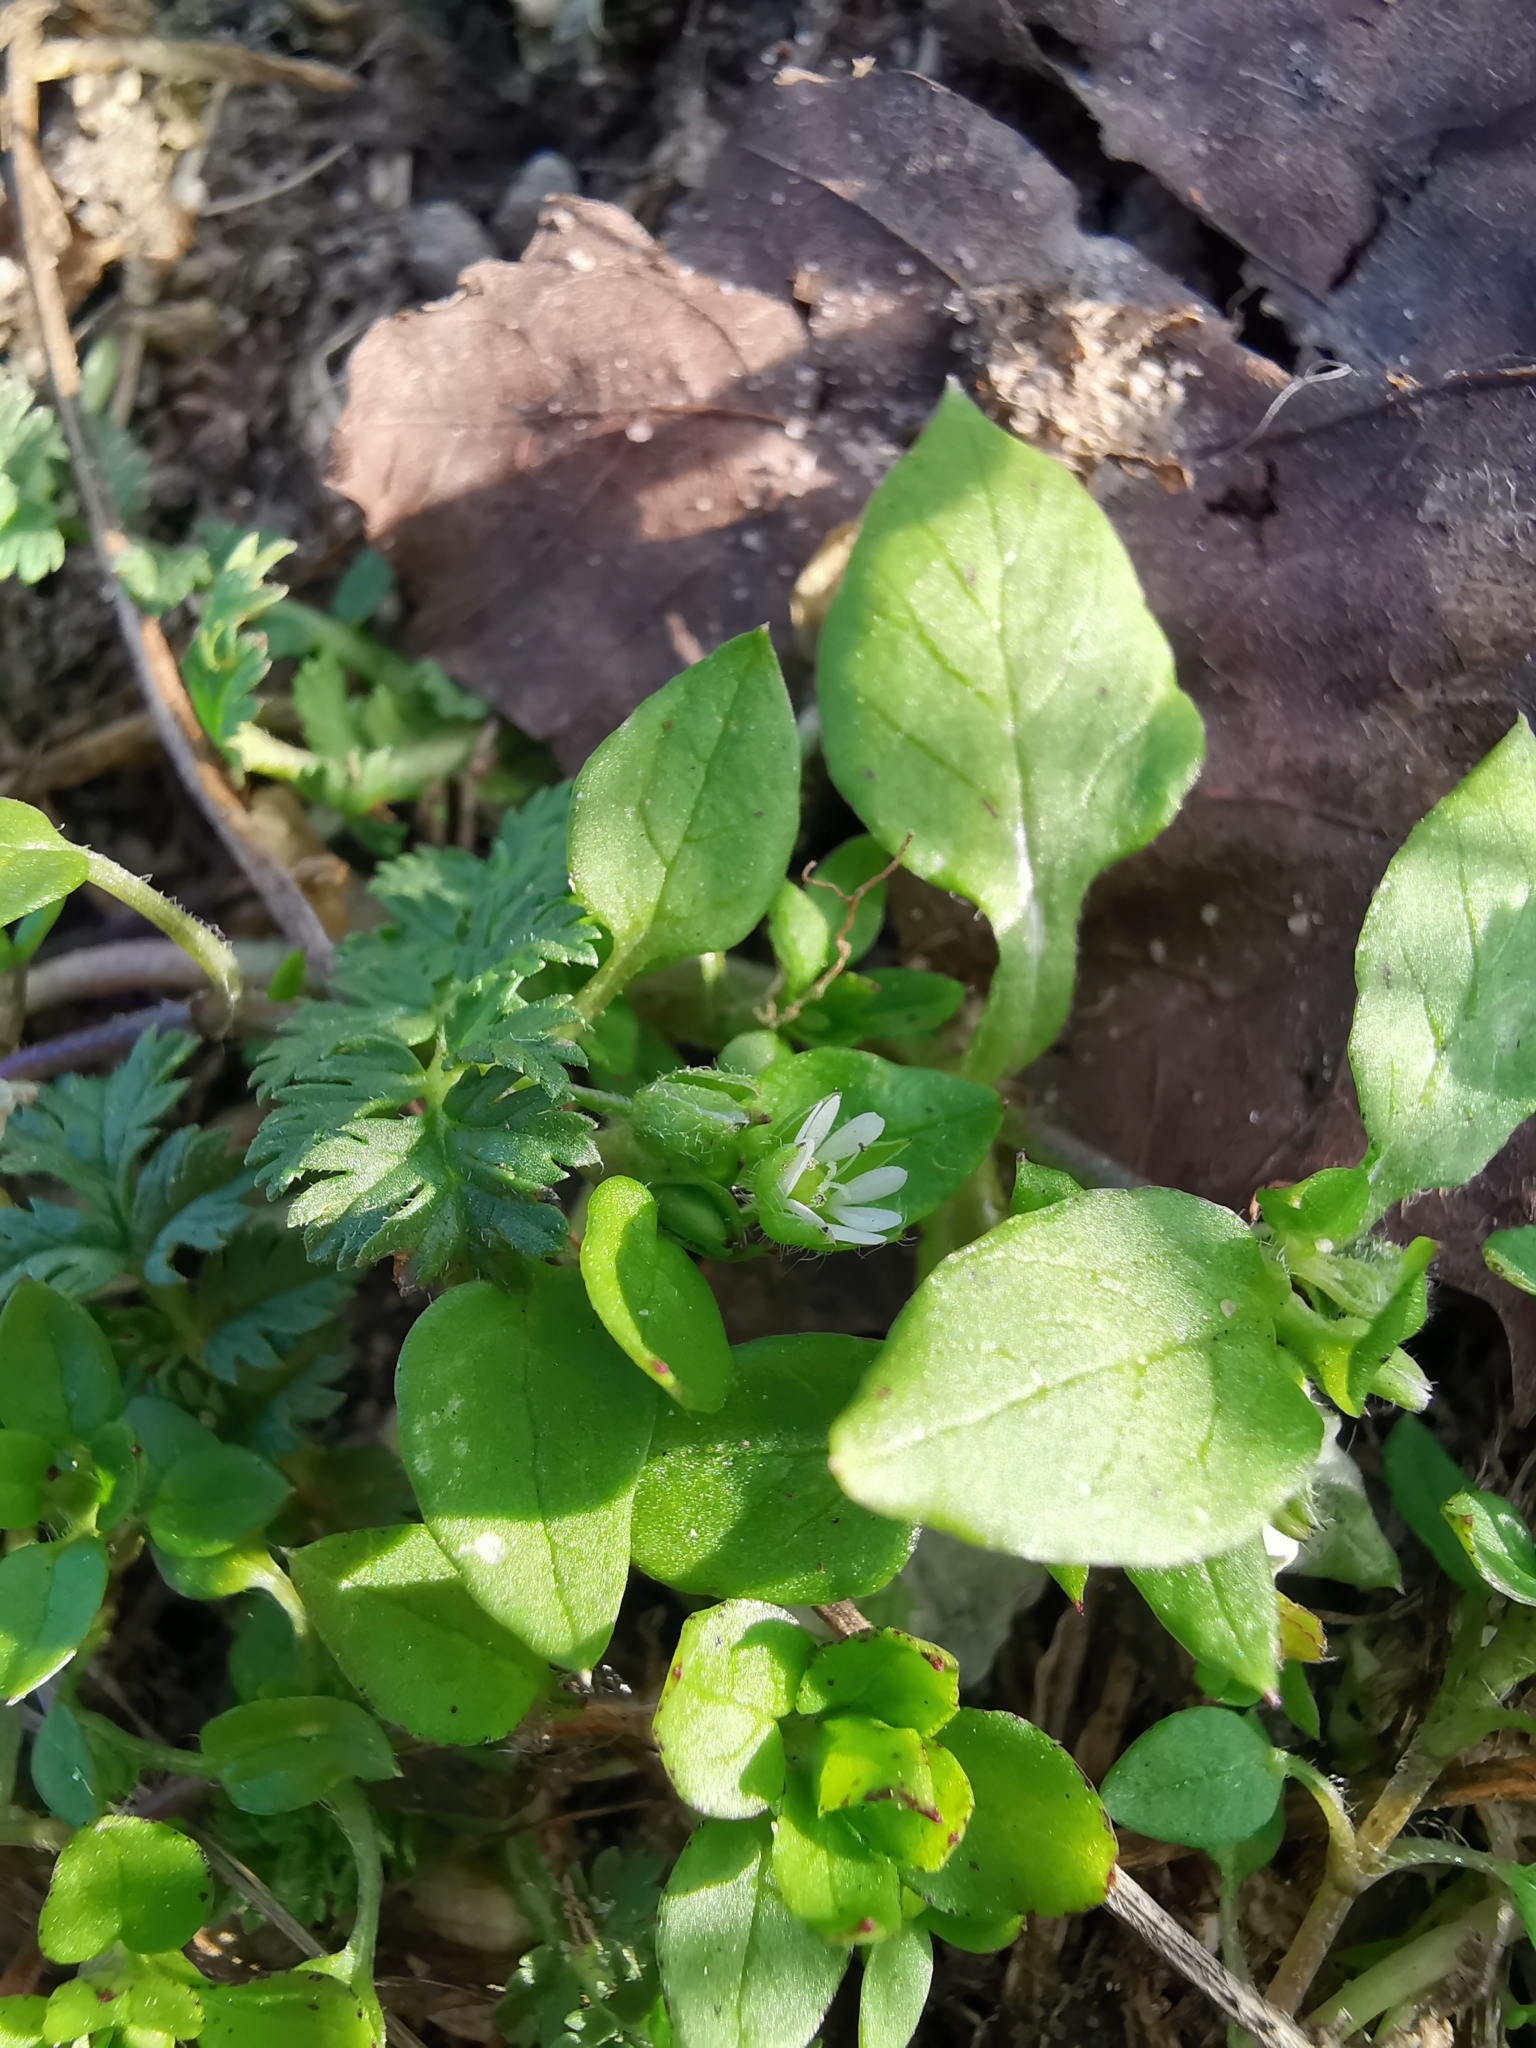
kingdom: Plantae
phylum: Tracheophyta
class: Magnoliopsida
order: Caryophyllales
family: Caryophyllaceae
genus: Stellaria
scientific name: Stellaria media
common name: Common chickweed
